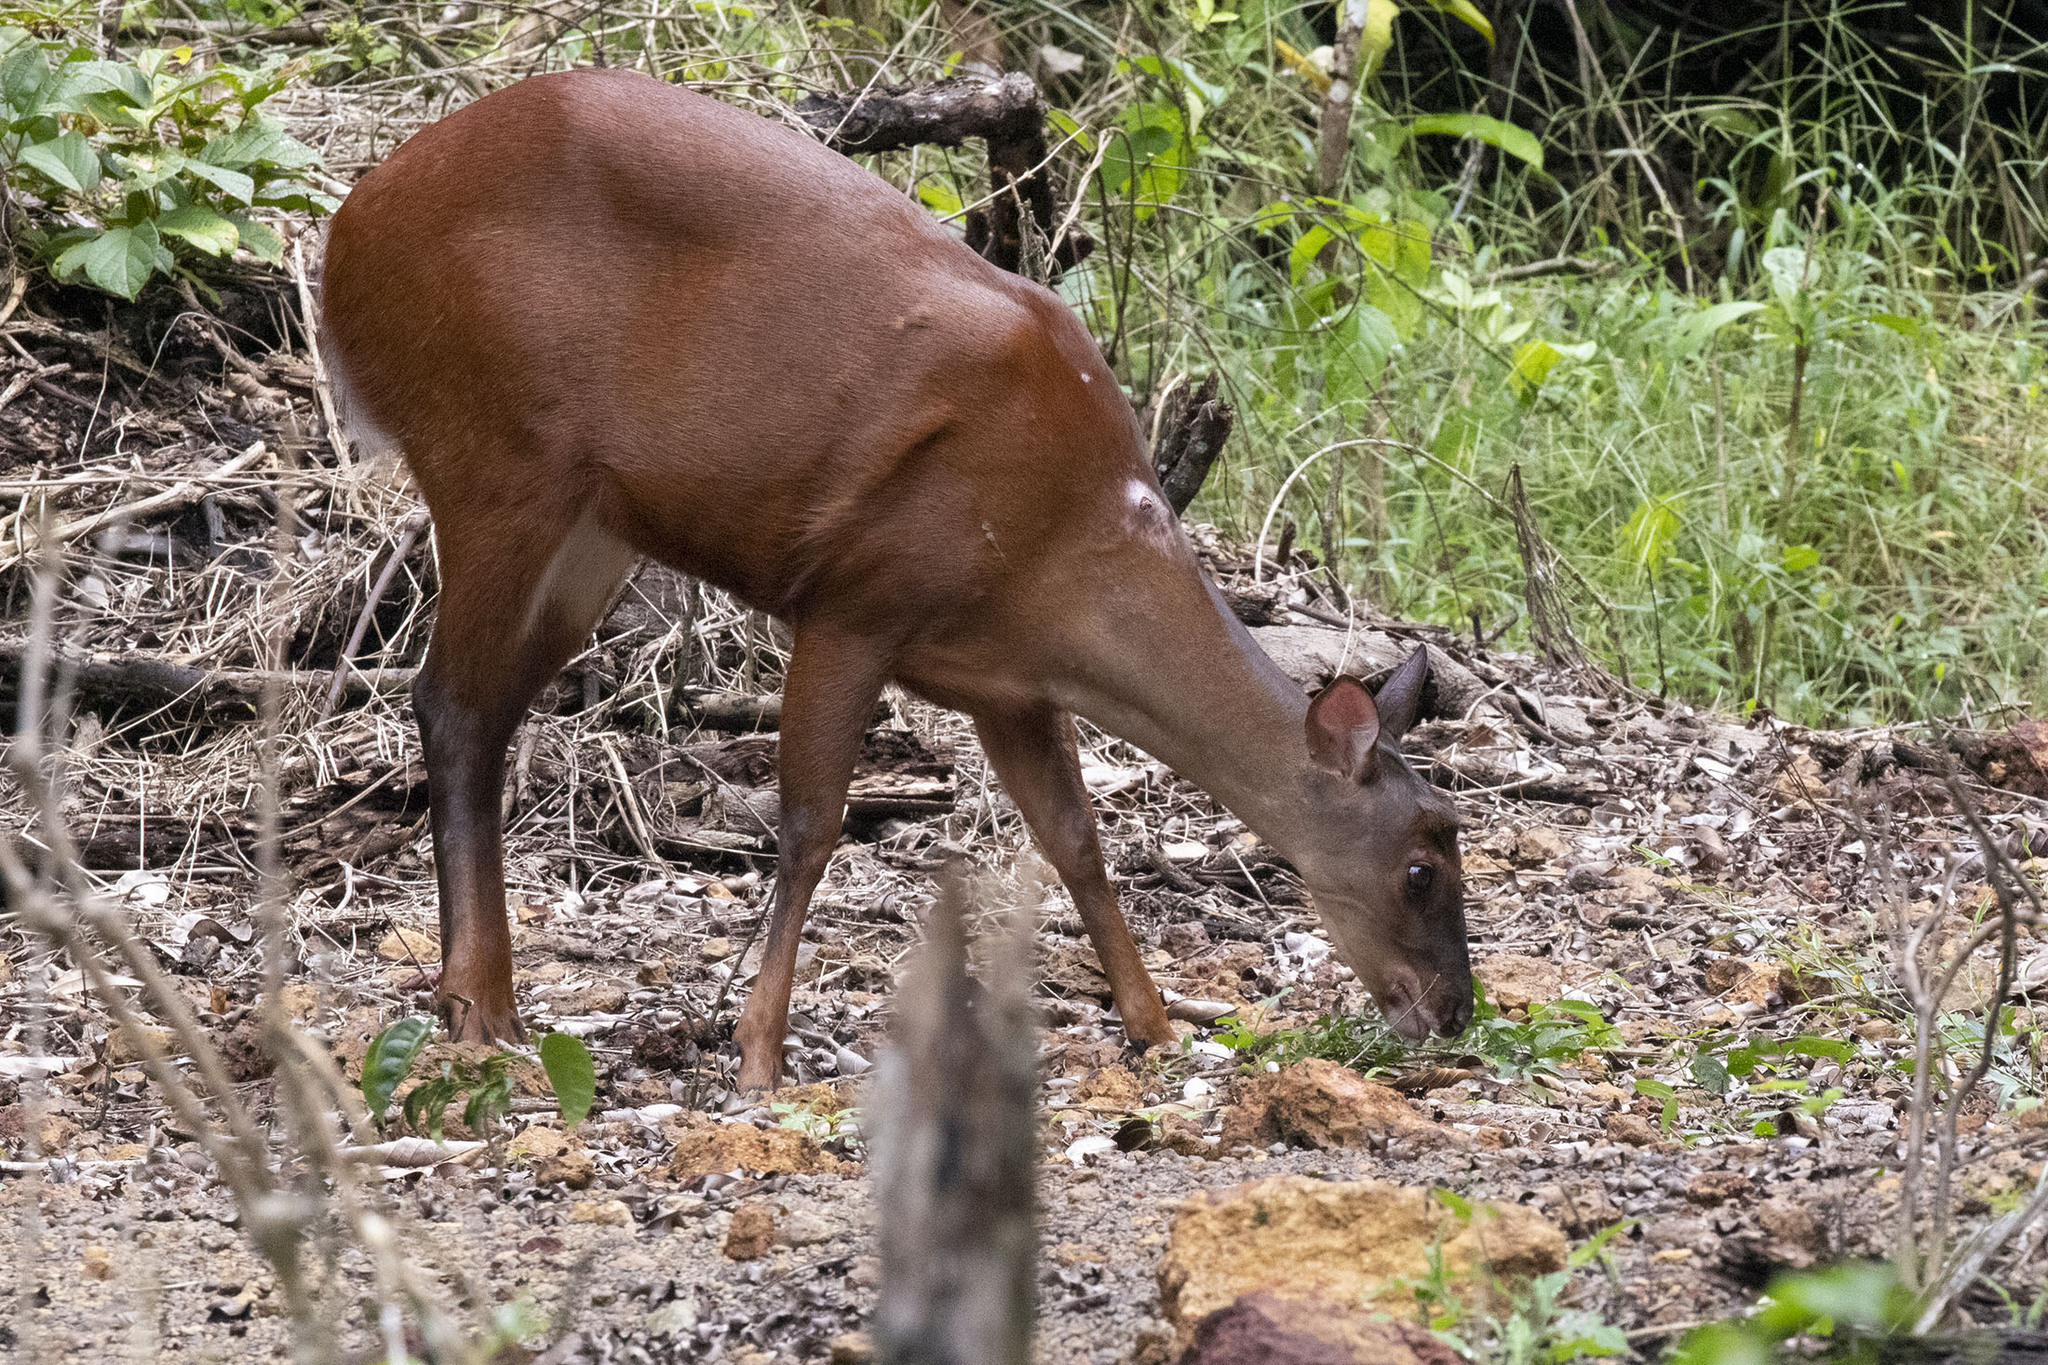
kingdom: Animalia
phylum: Chordata
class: Mammalia
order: Artiodactyla
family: Cervidae
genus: Mazama
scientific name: Mazama americana
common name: Red brocket
